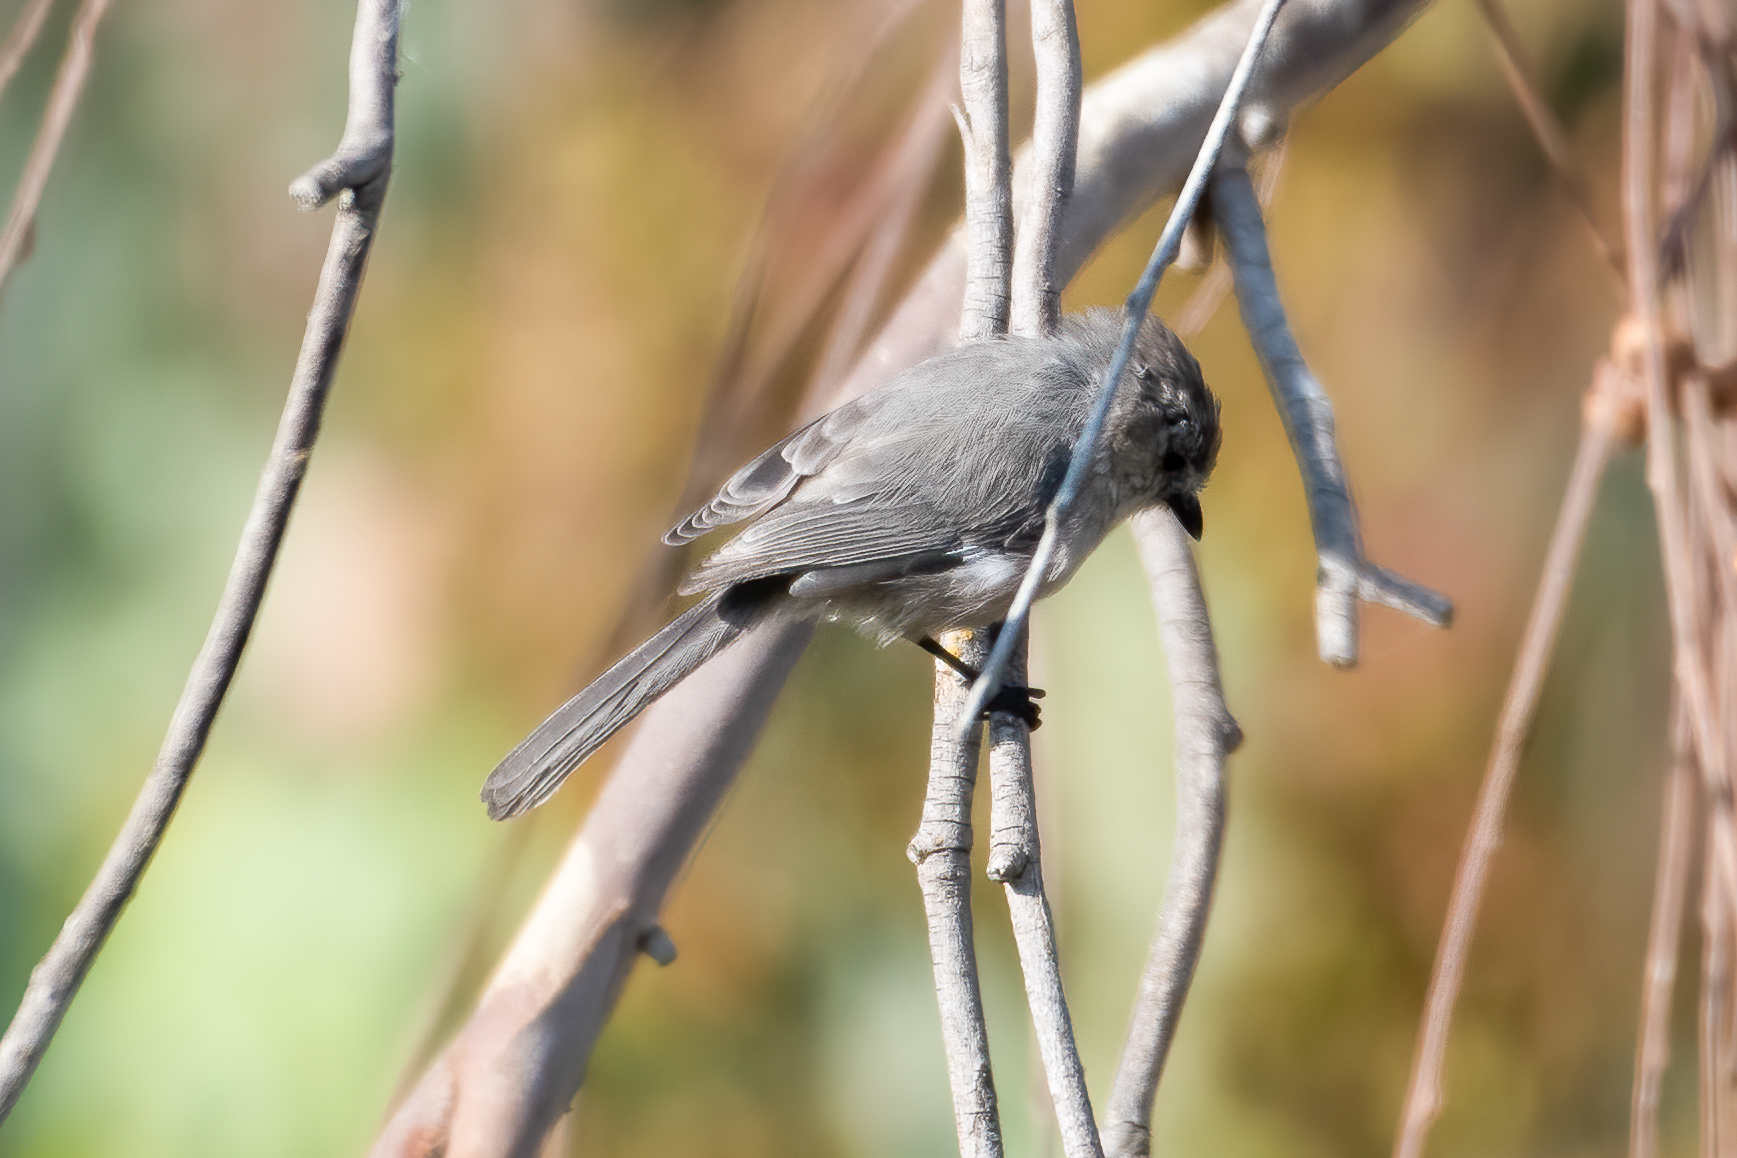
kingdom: Animalia
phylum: Chordata
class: Aves
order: Passeriformes
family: Aegithalidae
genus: Psaltriparus
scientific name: Psaltriparus minimus
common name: American bushtit
